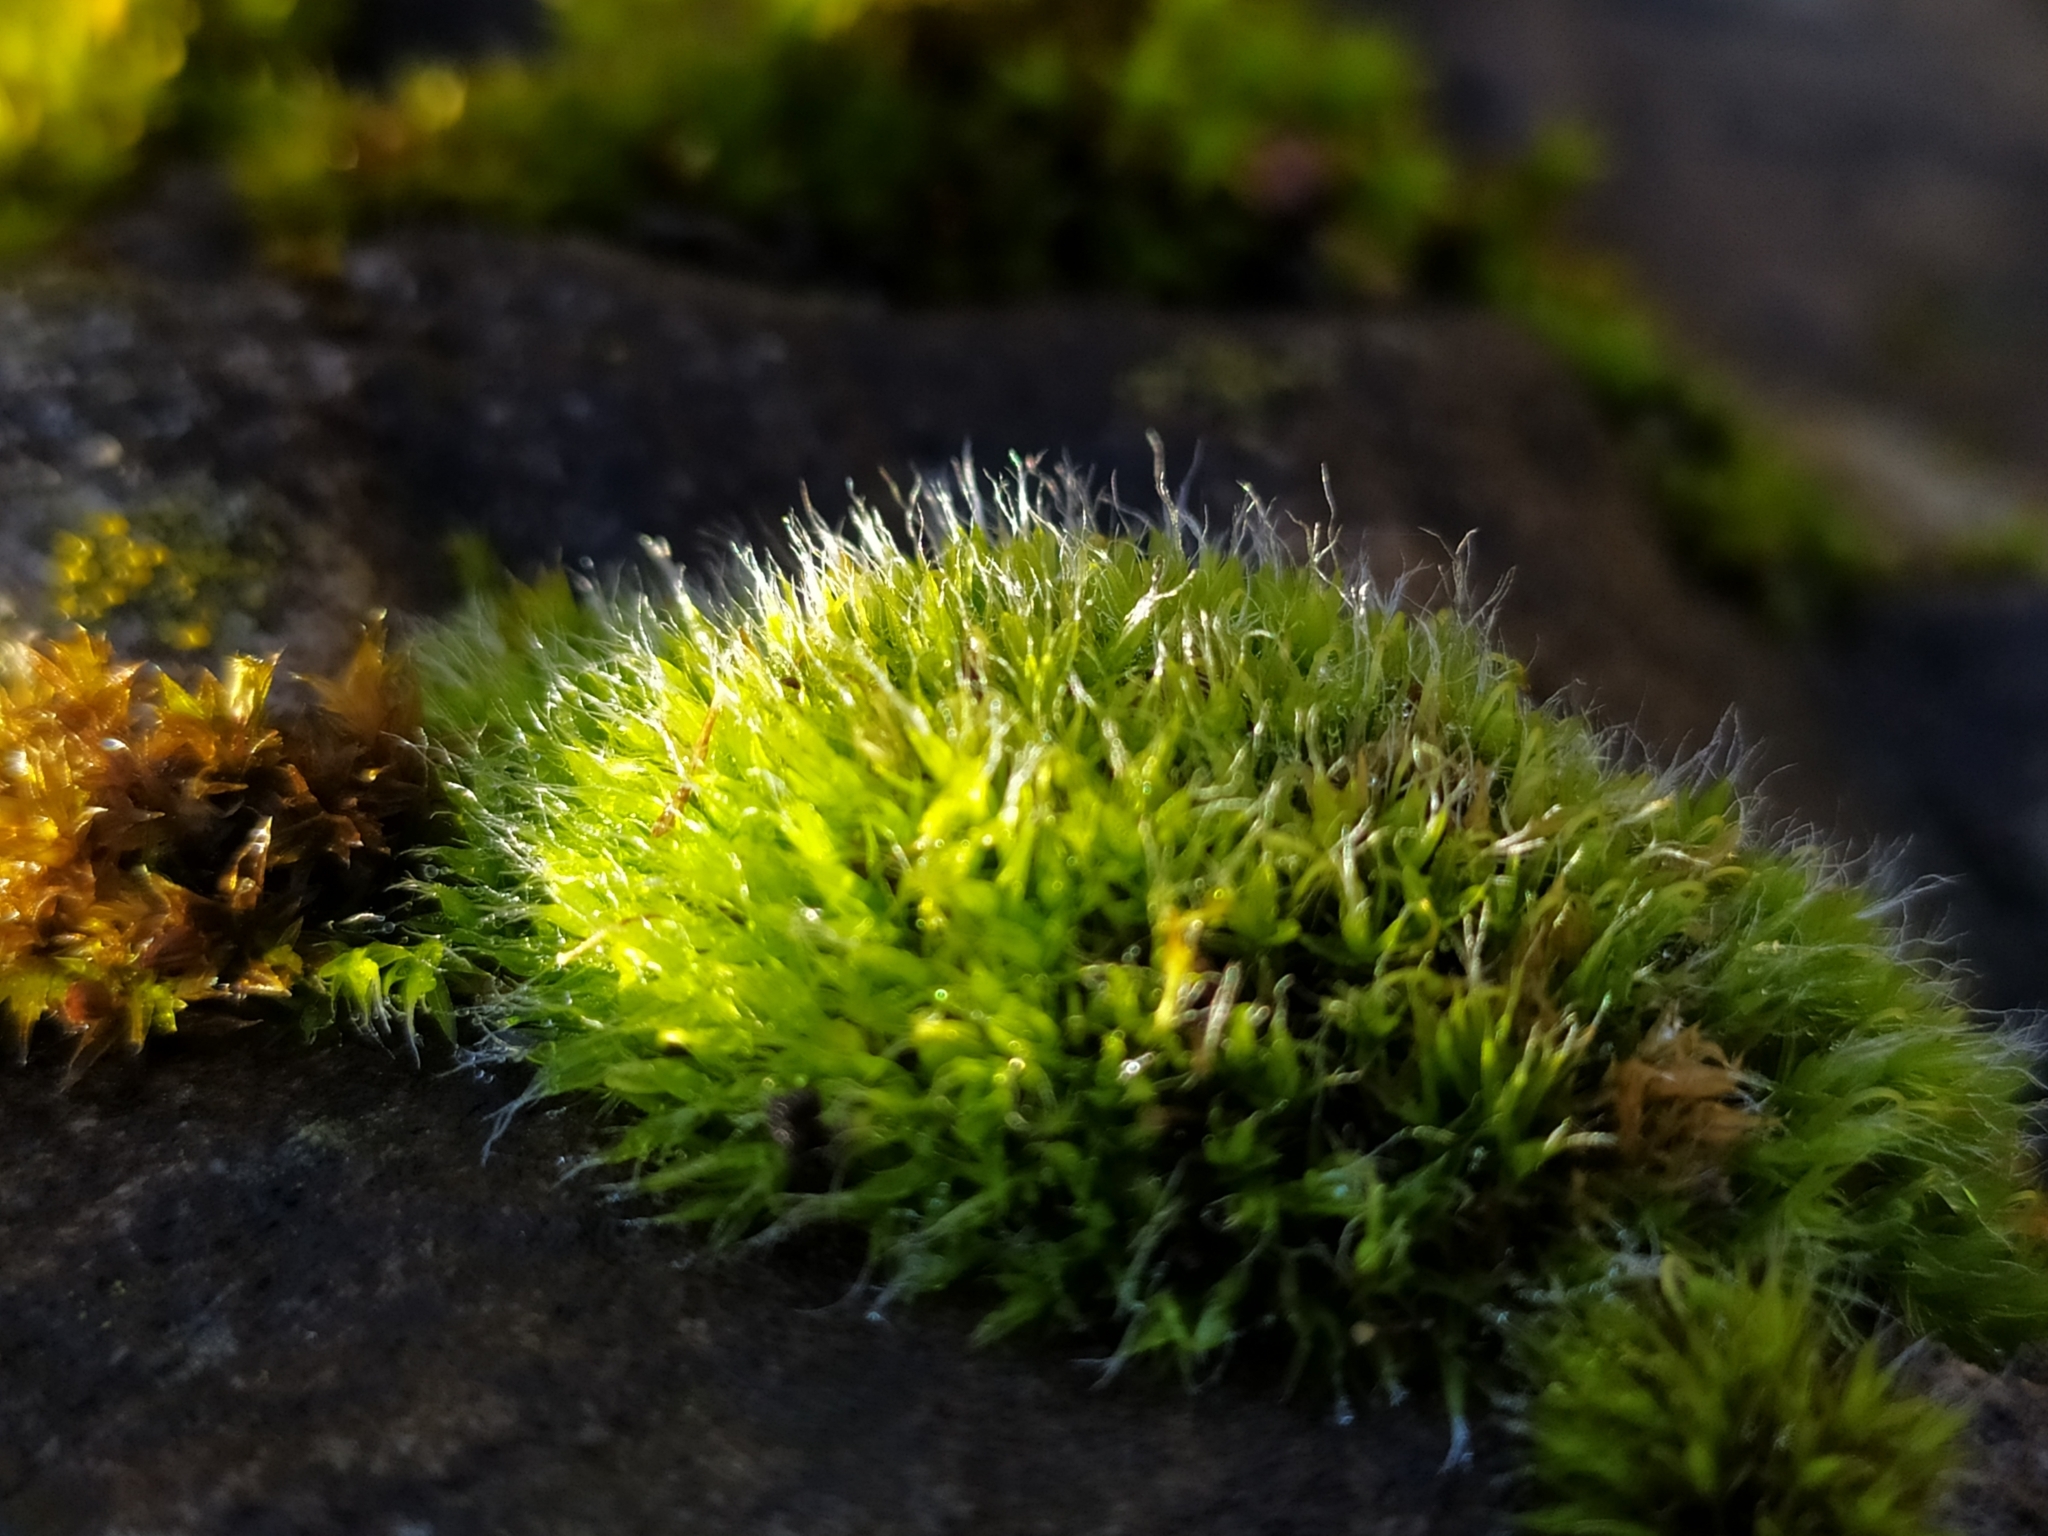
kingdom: Plantae
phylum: Bryophyta
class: Bryopsida
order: Grimmiales
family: Grimmiaceae
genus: Grimmia
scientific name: Grimmia pulvinata
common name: Grey-cushioned grimmia
